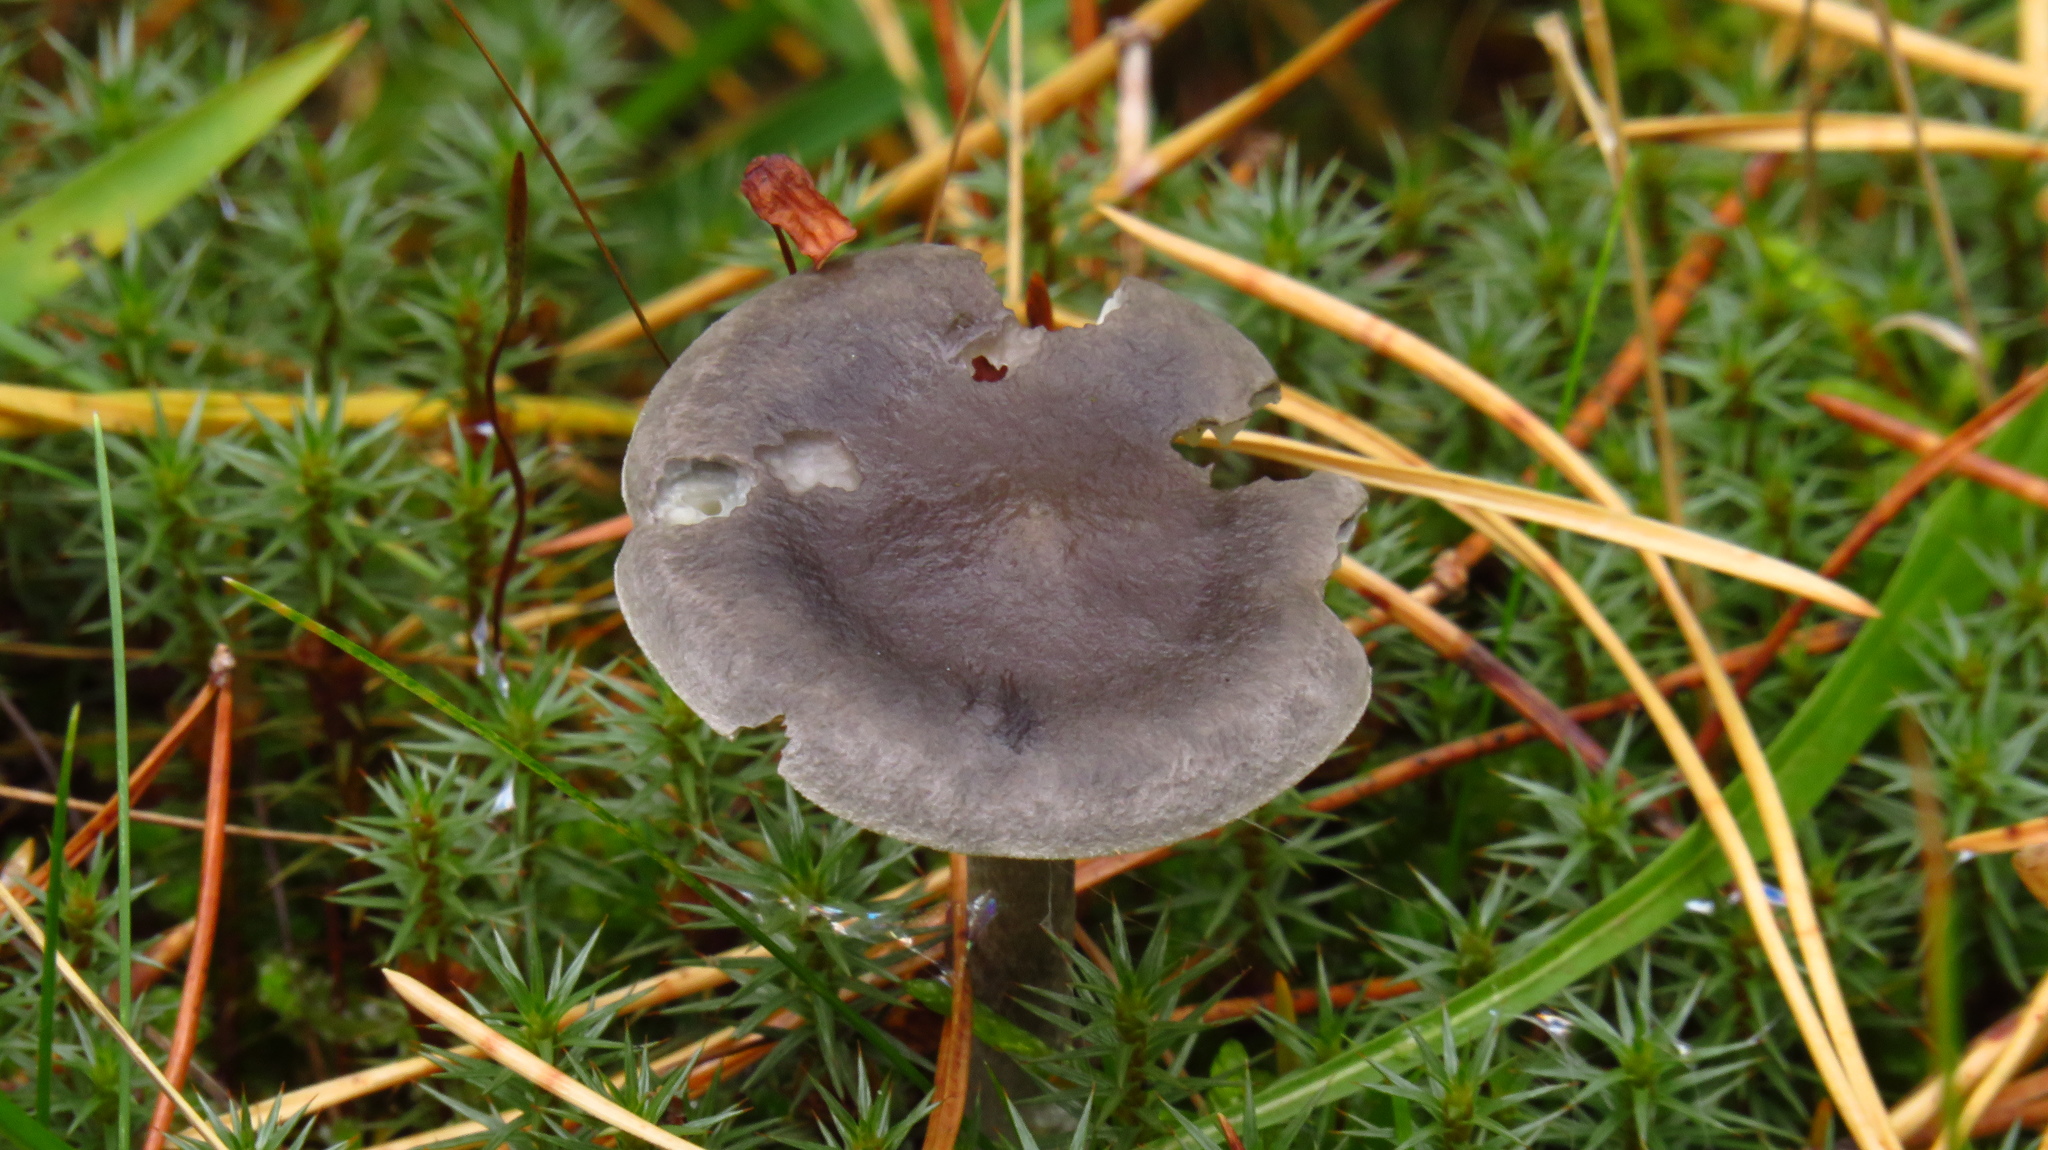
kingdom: Fungi
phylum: Basidiomycota
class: Agaricomycetes
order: Agaricales
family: Hygrophoraceae
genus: Cantharellula
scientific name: Cantharellula umbonata
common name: The humpback
